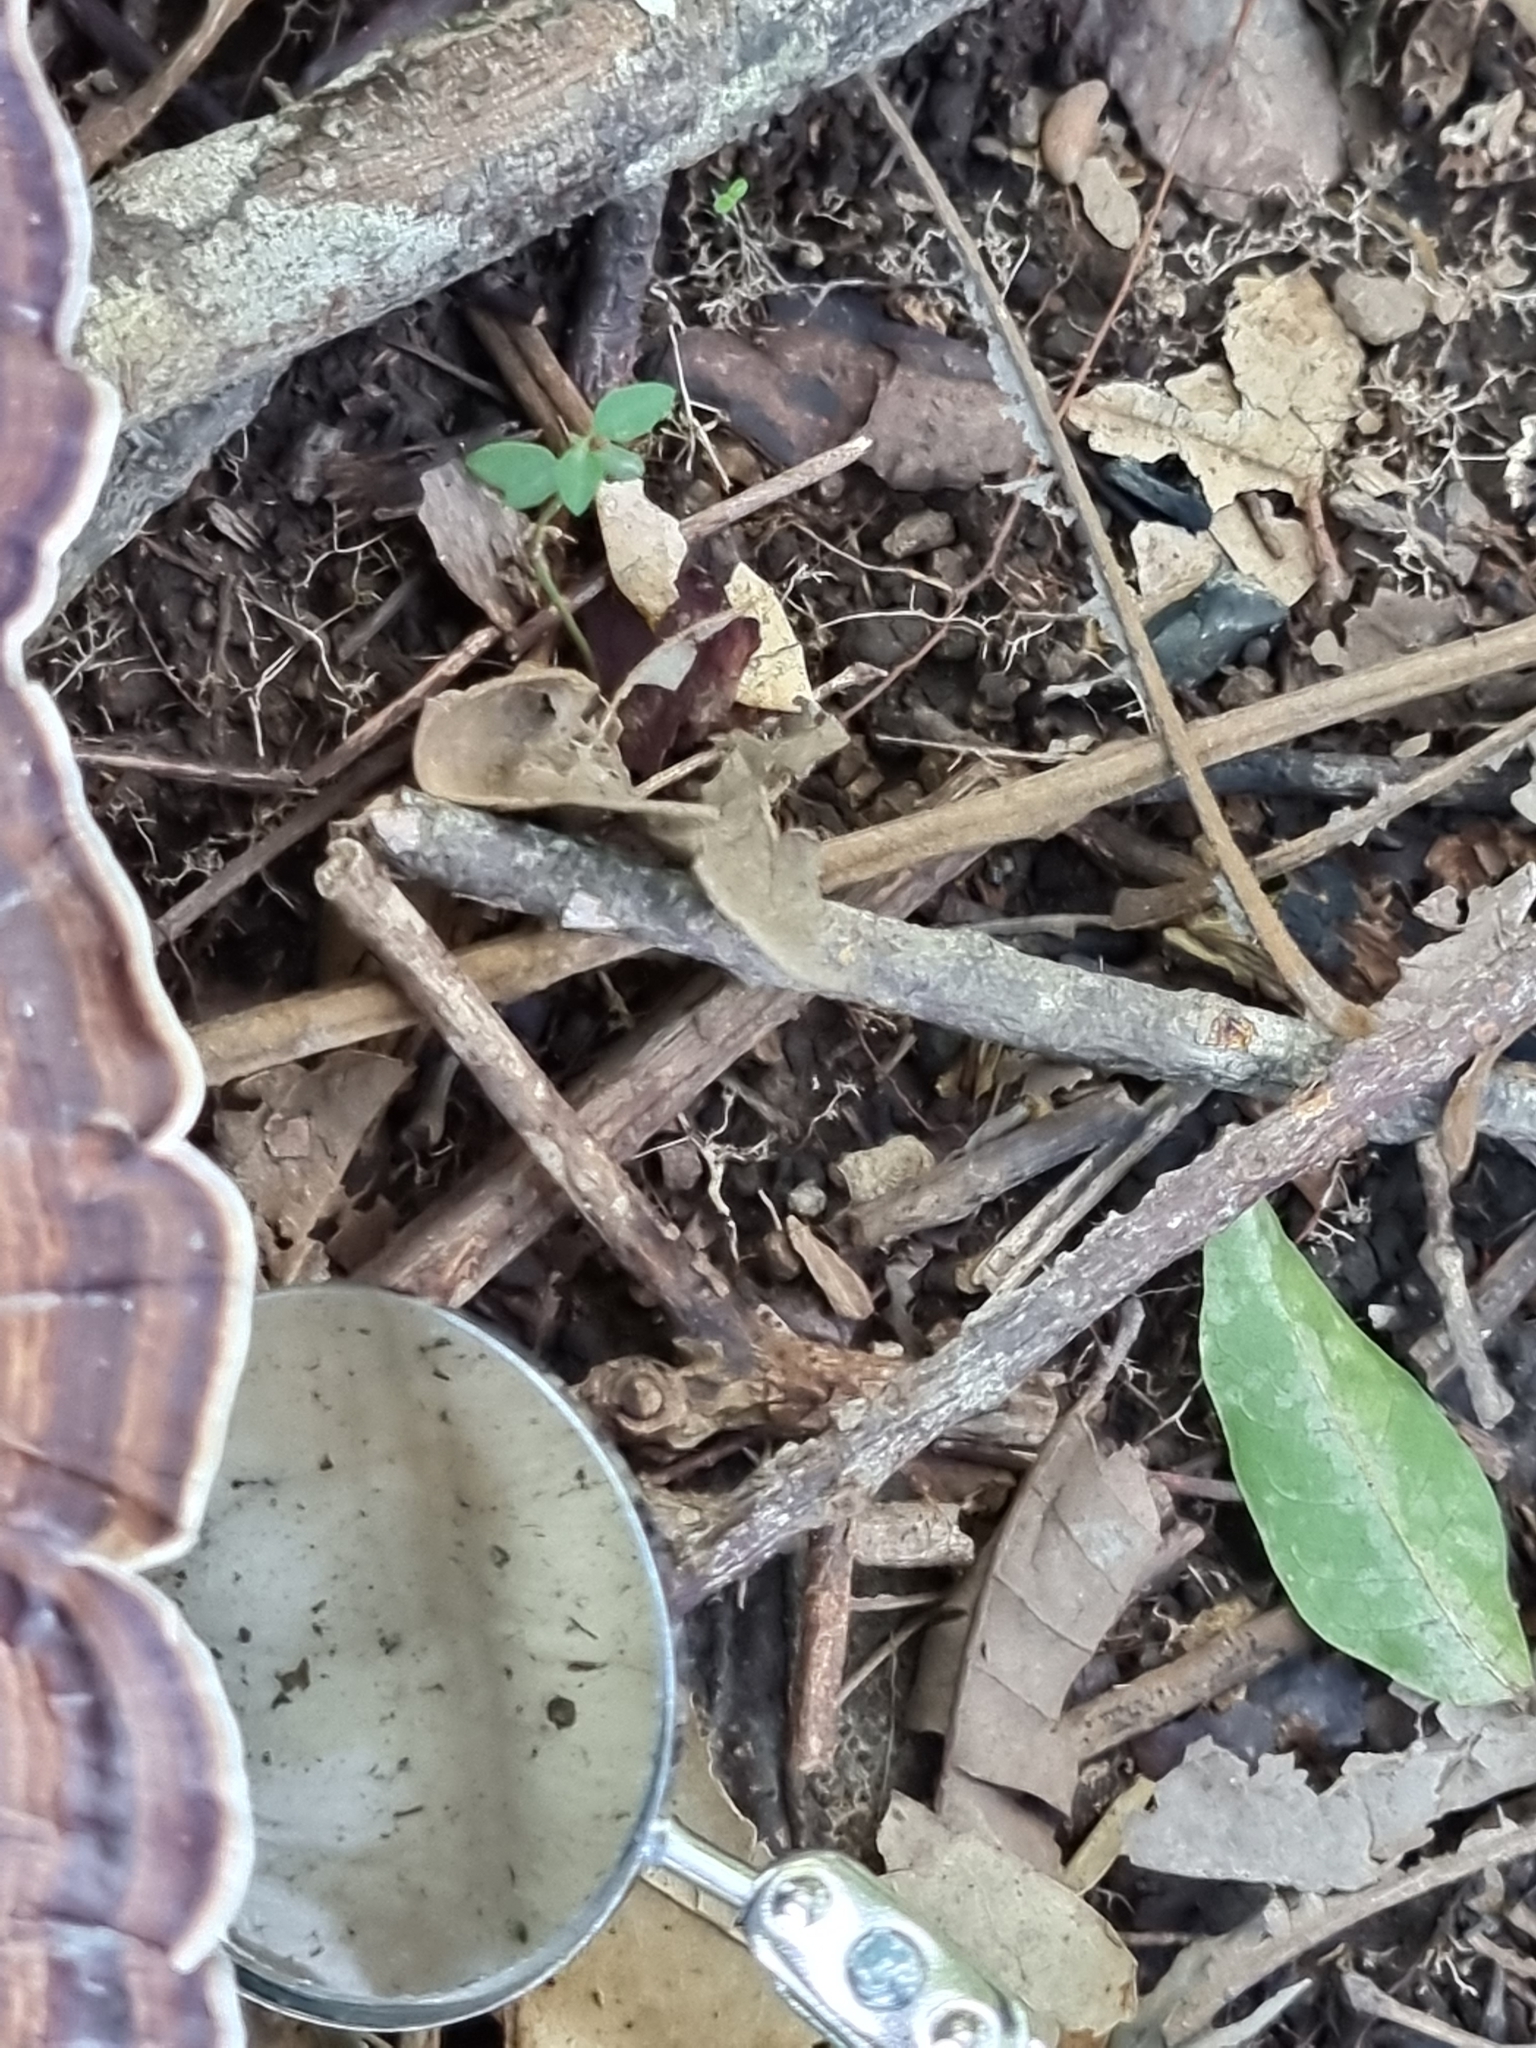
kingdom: Fungi
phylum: Basidiomycota
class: Agaricomycetes
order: Polyporales
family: Polyporaceae
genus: Microporus
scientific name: Microporus xanthopus
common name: Yellow-stemmed micropore
